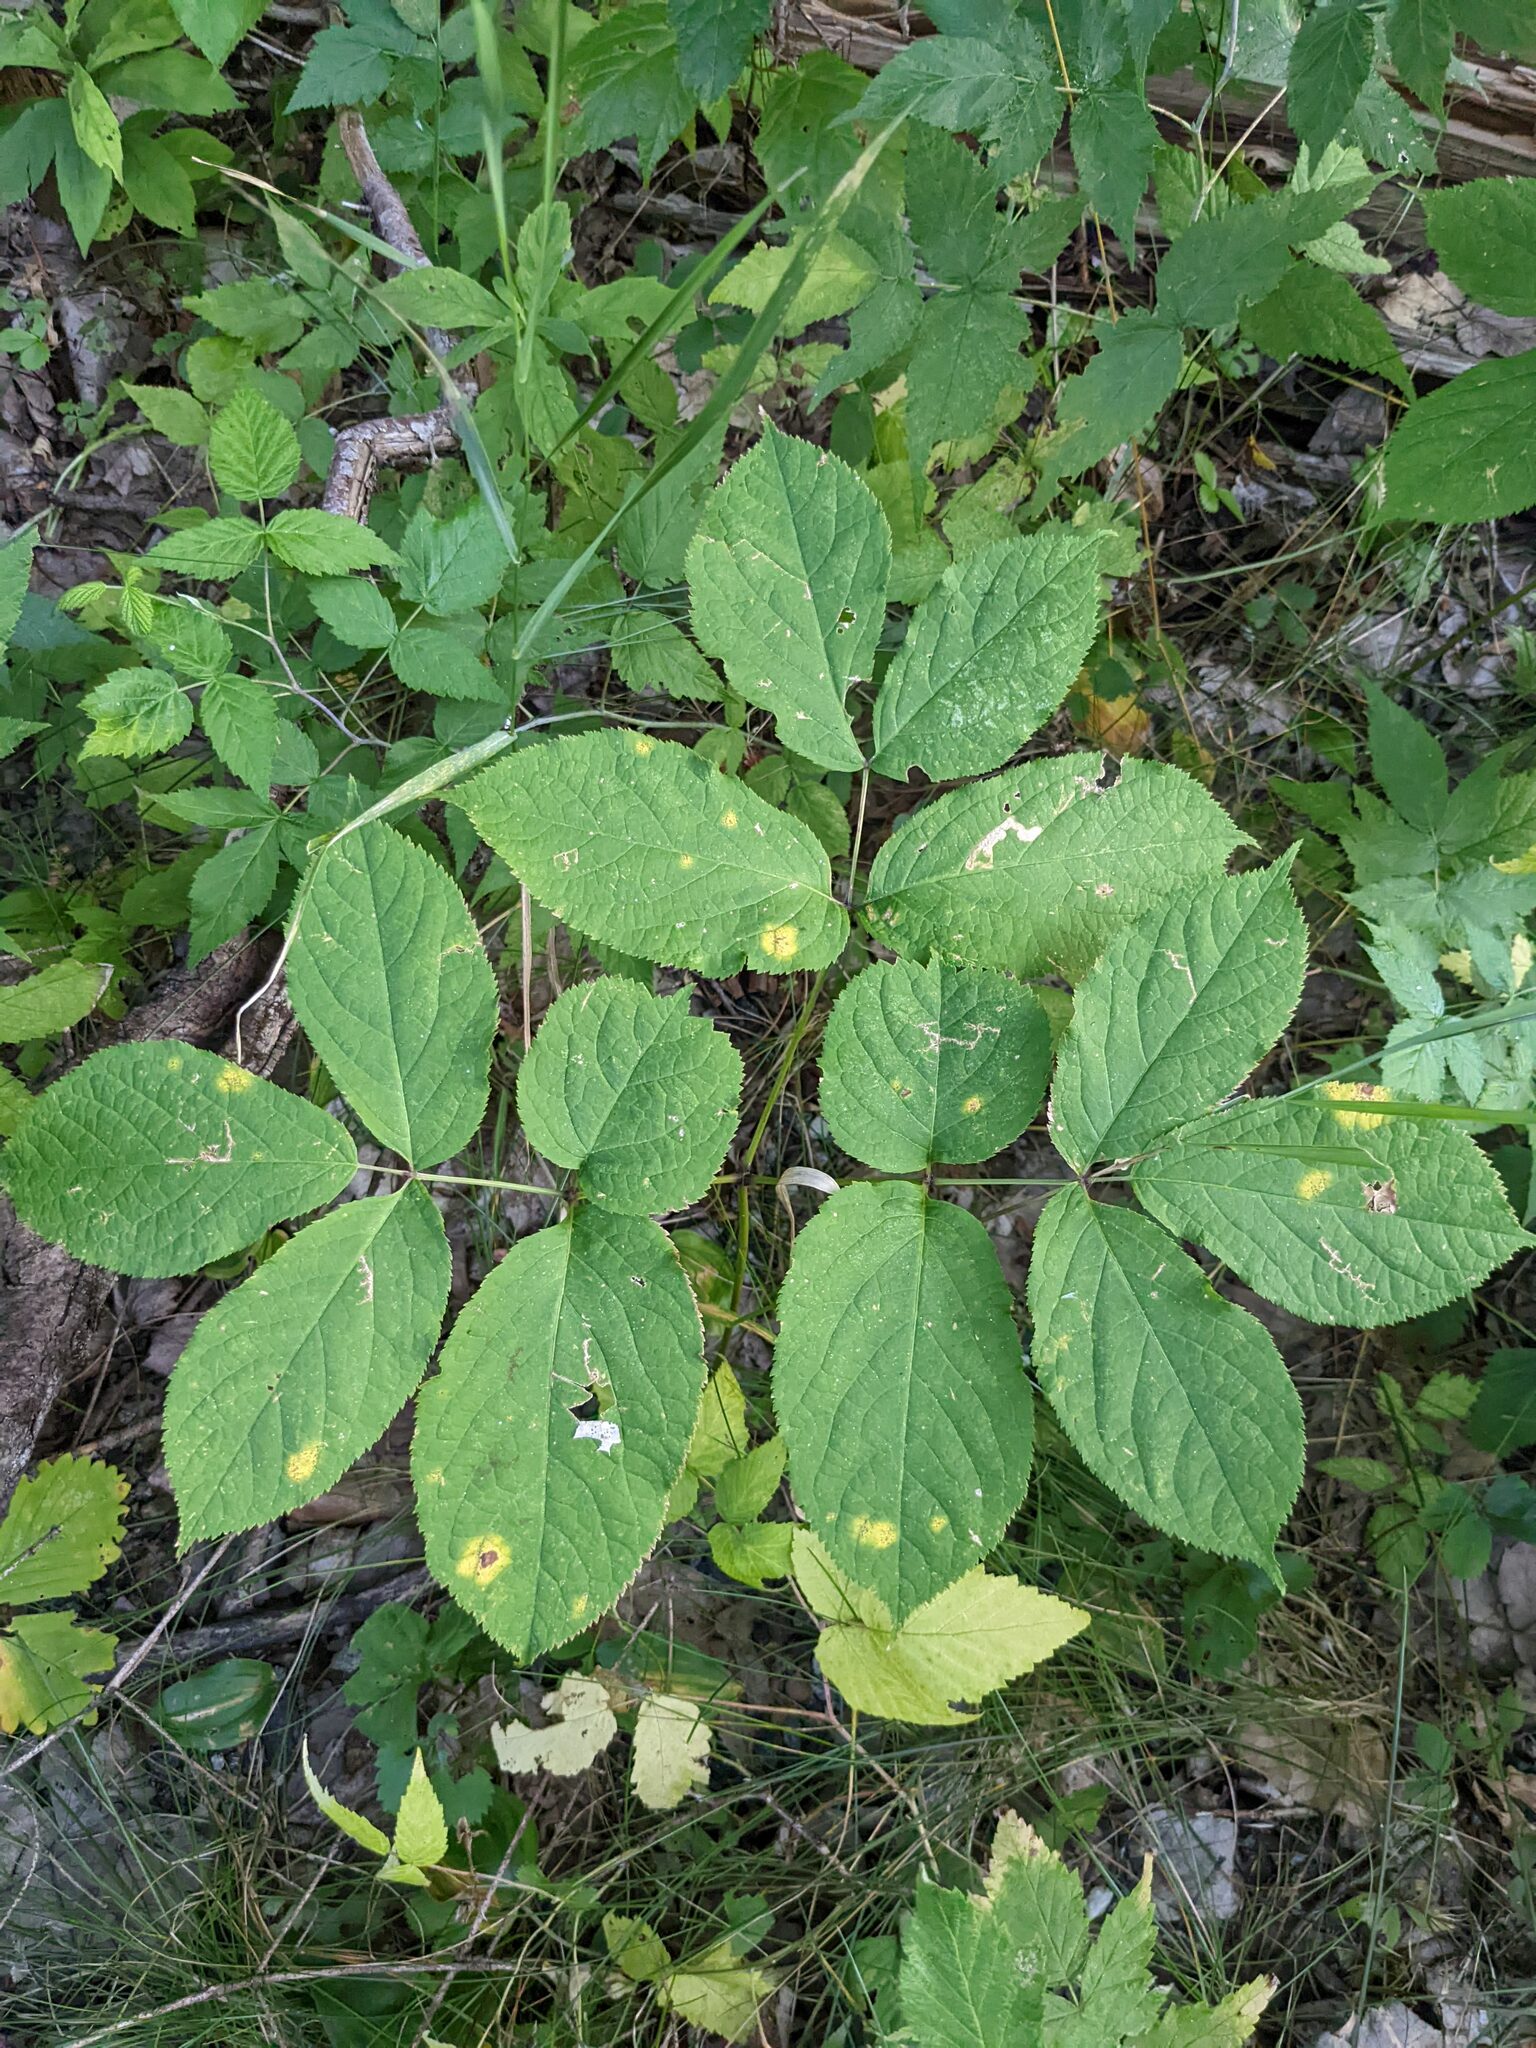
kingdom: Plantae
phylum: Tracheophyta
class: Magnoliopsida
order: Apiales
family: Araliaceae
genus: Aralia
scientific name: Aralia nudicaulis
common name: Wild sarsaparilla
